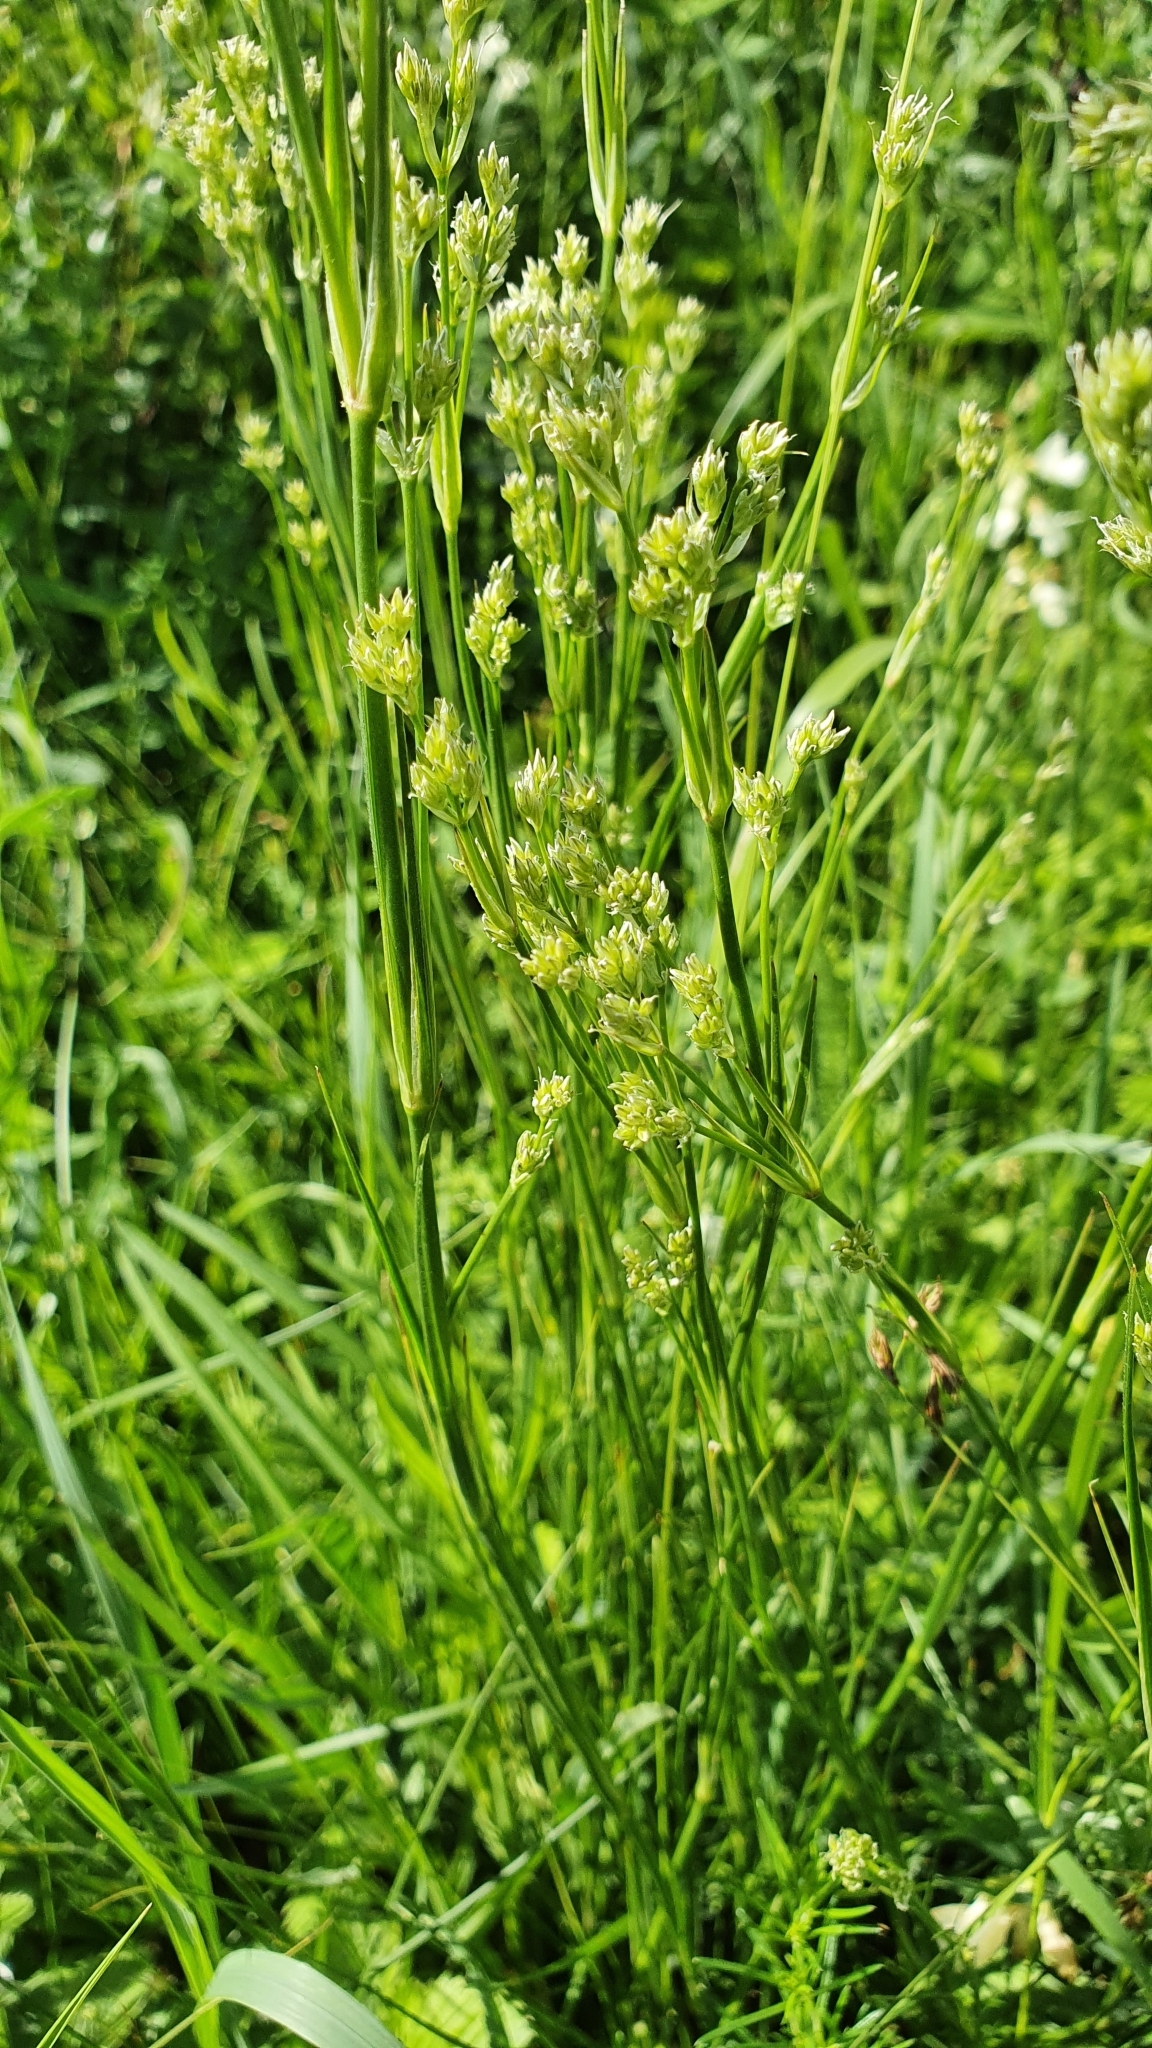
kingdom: Plantae
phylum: Tracheophyta
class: Magnoliopsida
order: Caryophyllales
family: Caryophyllaceae
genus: Eremogone
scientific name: Eremogone longifolia
